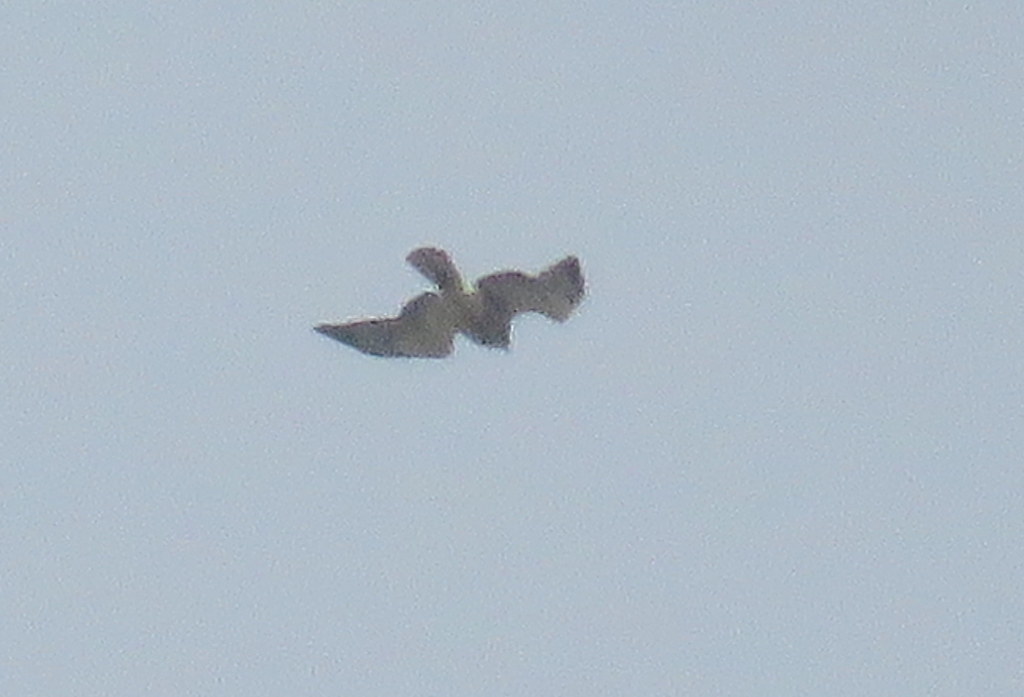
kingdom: Animalia
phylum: Chordata
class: Aves
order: Accipitriformes
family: Accipitridae
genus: Buteo
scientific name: Buteo swainsoni
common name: Swainson's hawk
